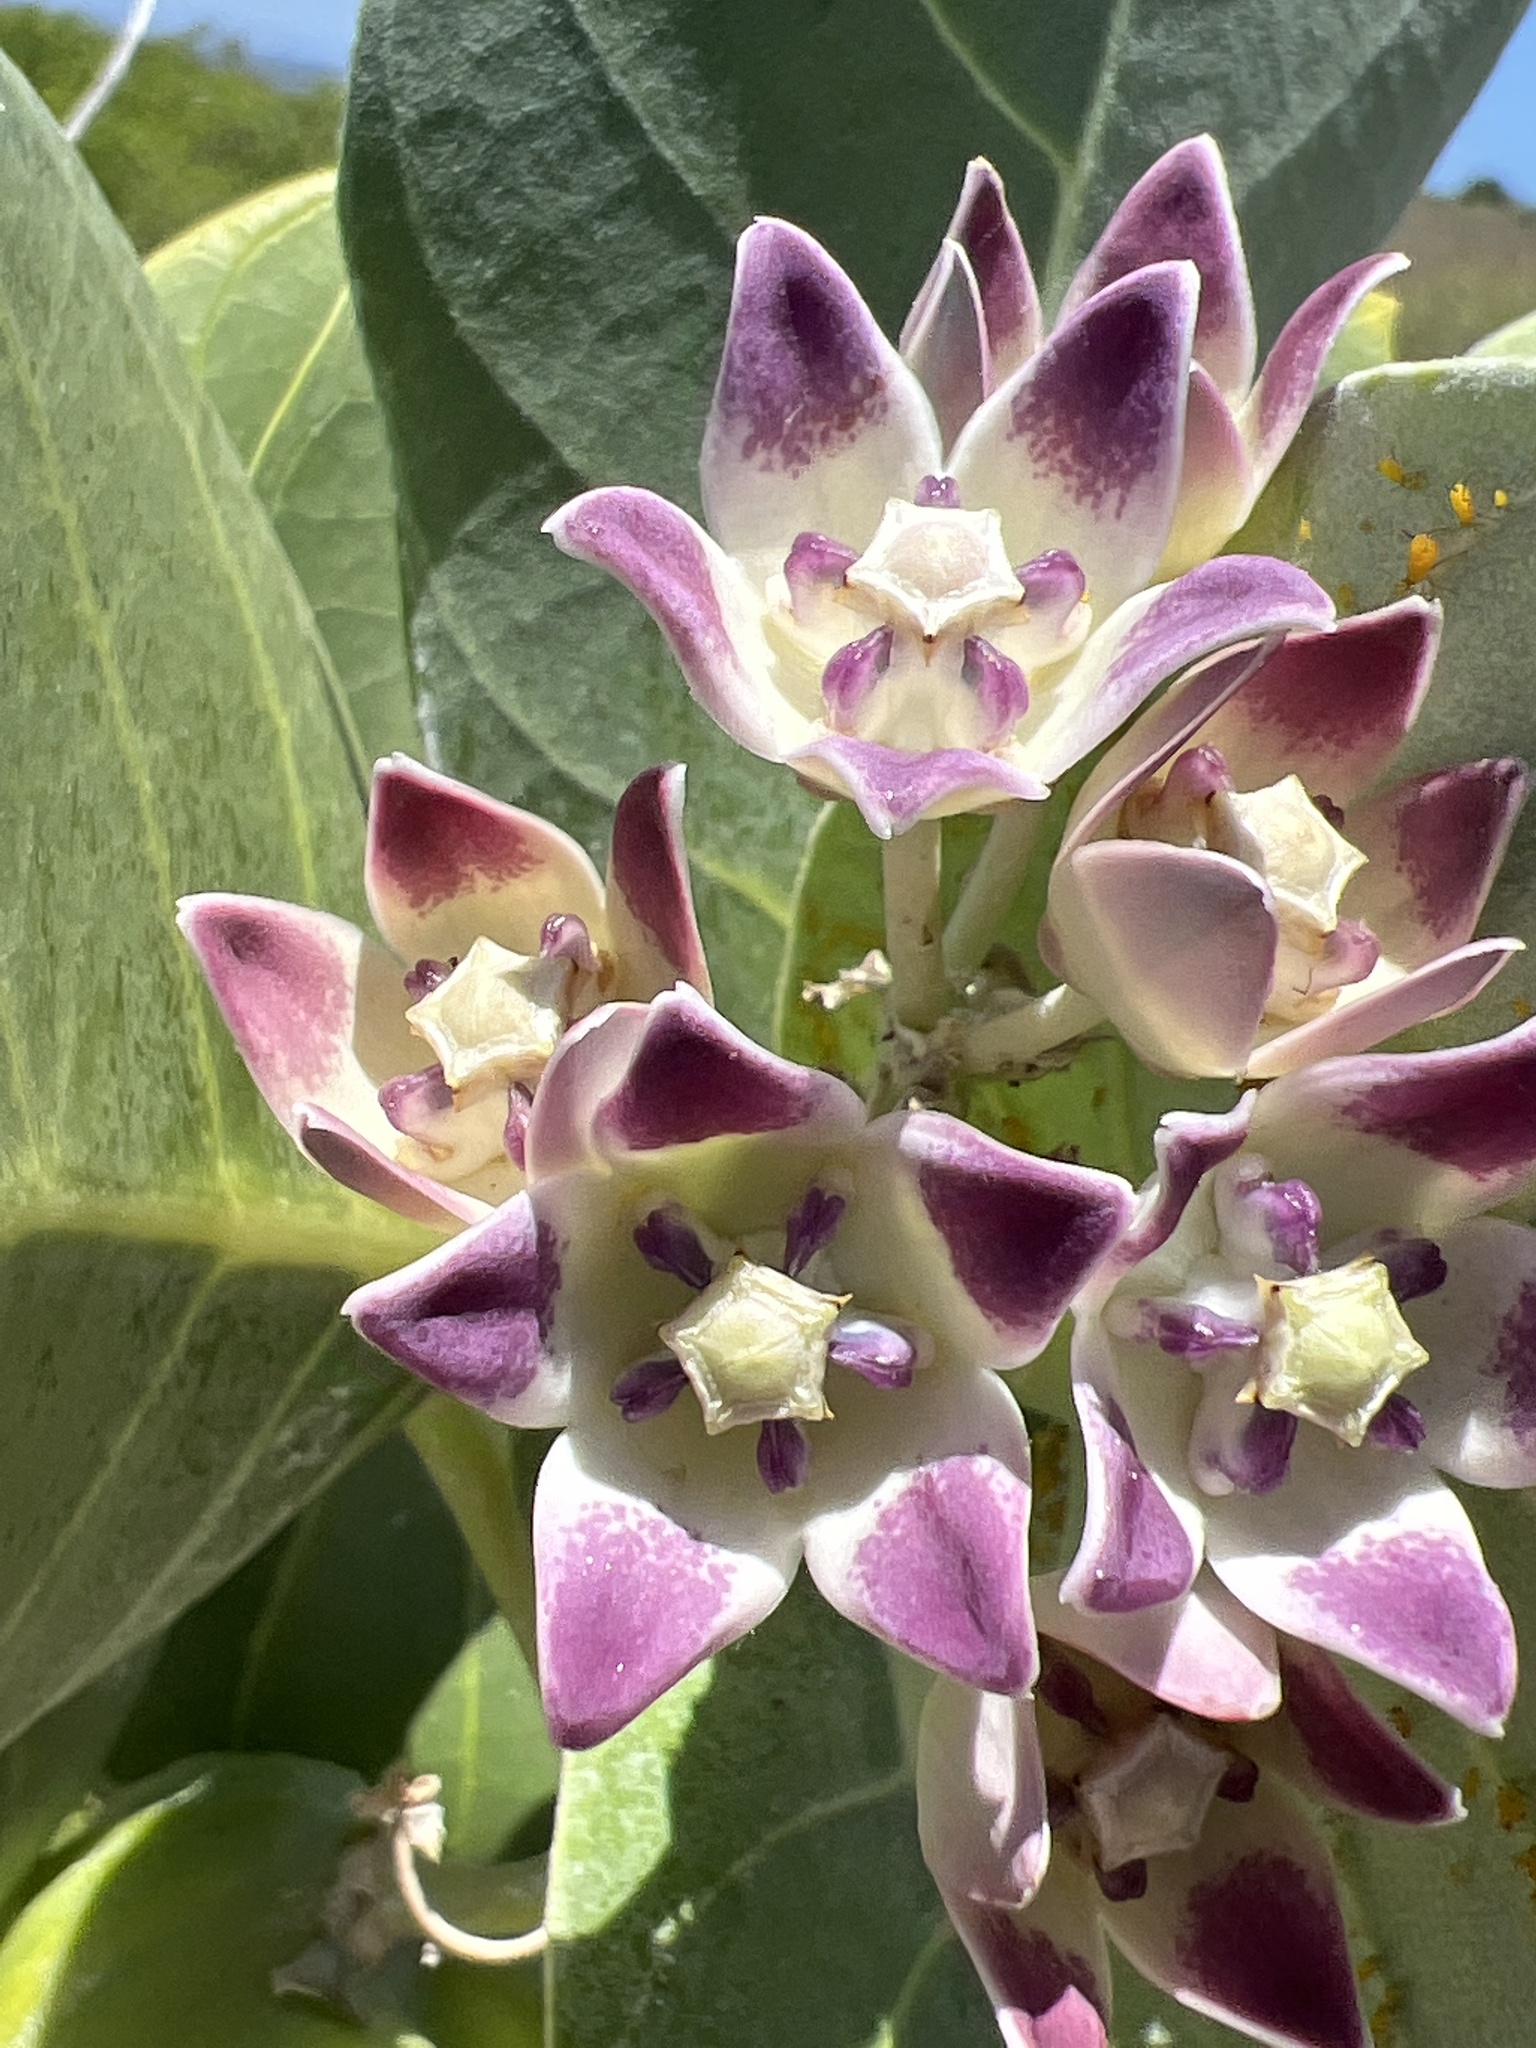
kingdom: Plantae
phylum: Tracheophyta
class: Magnoliopsida
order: Gentianales
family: Apocynaceae
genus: Calotropis
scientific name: Calotropis procera
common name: Roostertree
